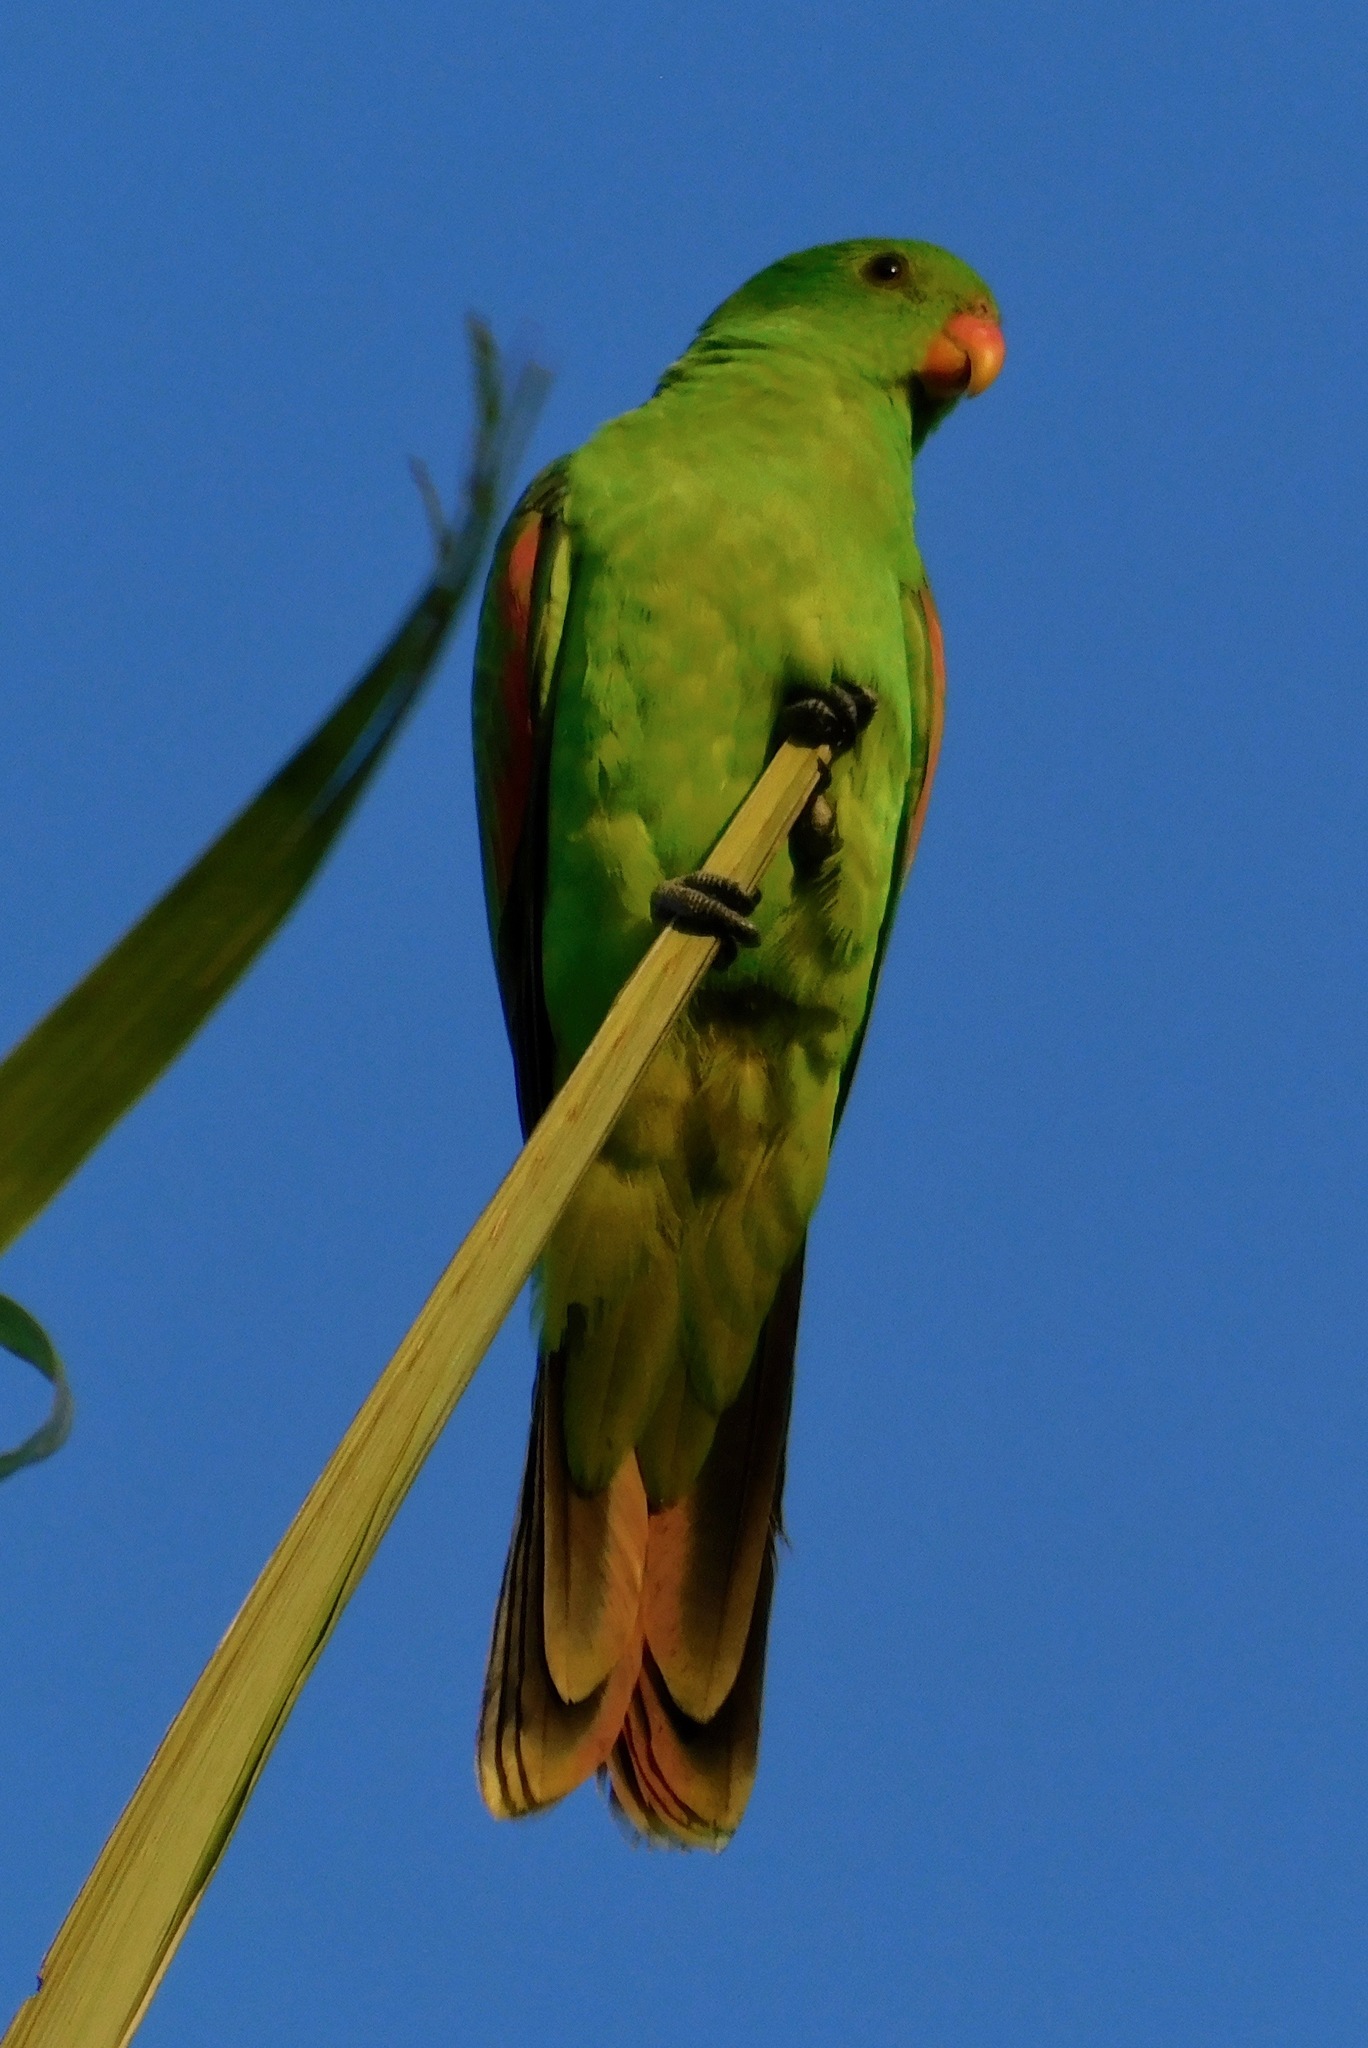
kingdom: Animalia
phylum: Chordata
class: Aves
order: Psittaciformes
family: Psittacidae
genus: Aprosmictus
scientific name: Aprosmictus erythropterus
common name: Red-winged parrot
